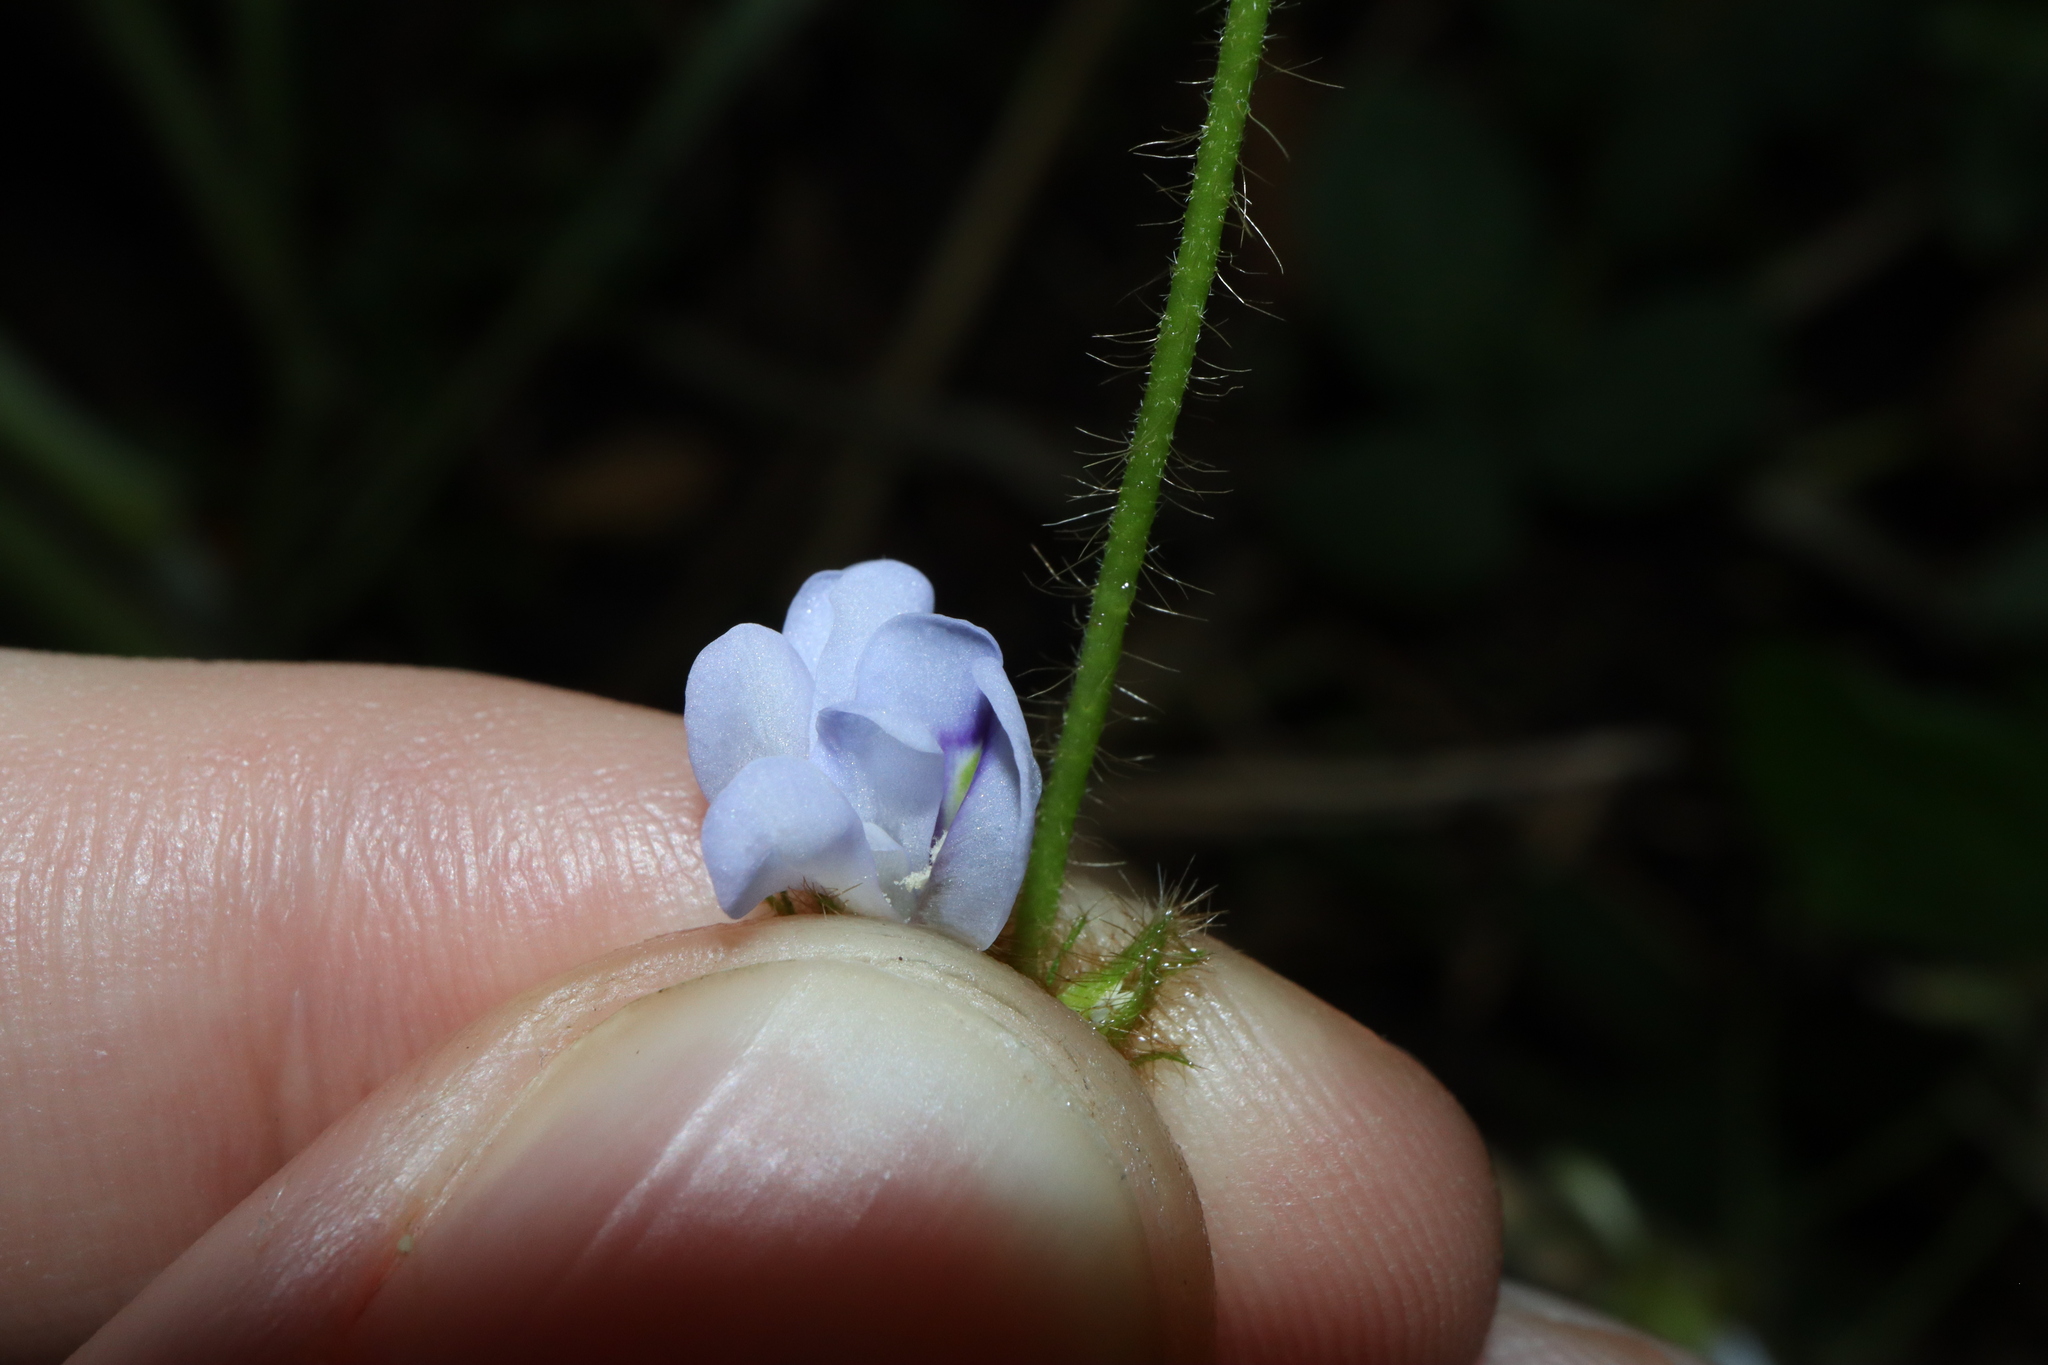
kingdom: Plantae
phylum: Tracheophyta
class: Magnoliopsida
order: Fabales
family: Fabaceae
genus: Calopogonium
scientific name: Calopogonium mucunoides
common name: Calopo
